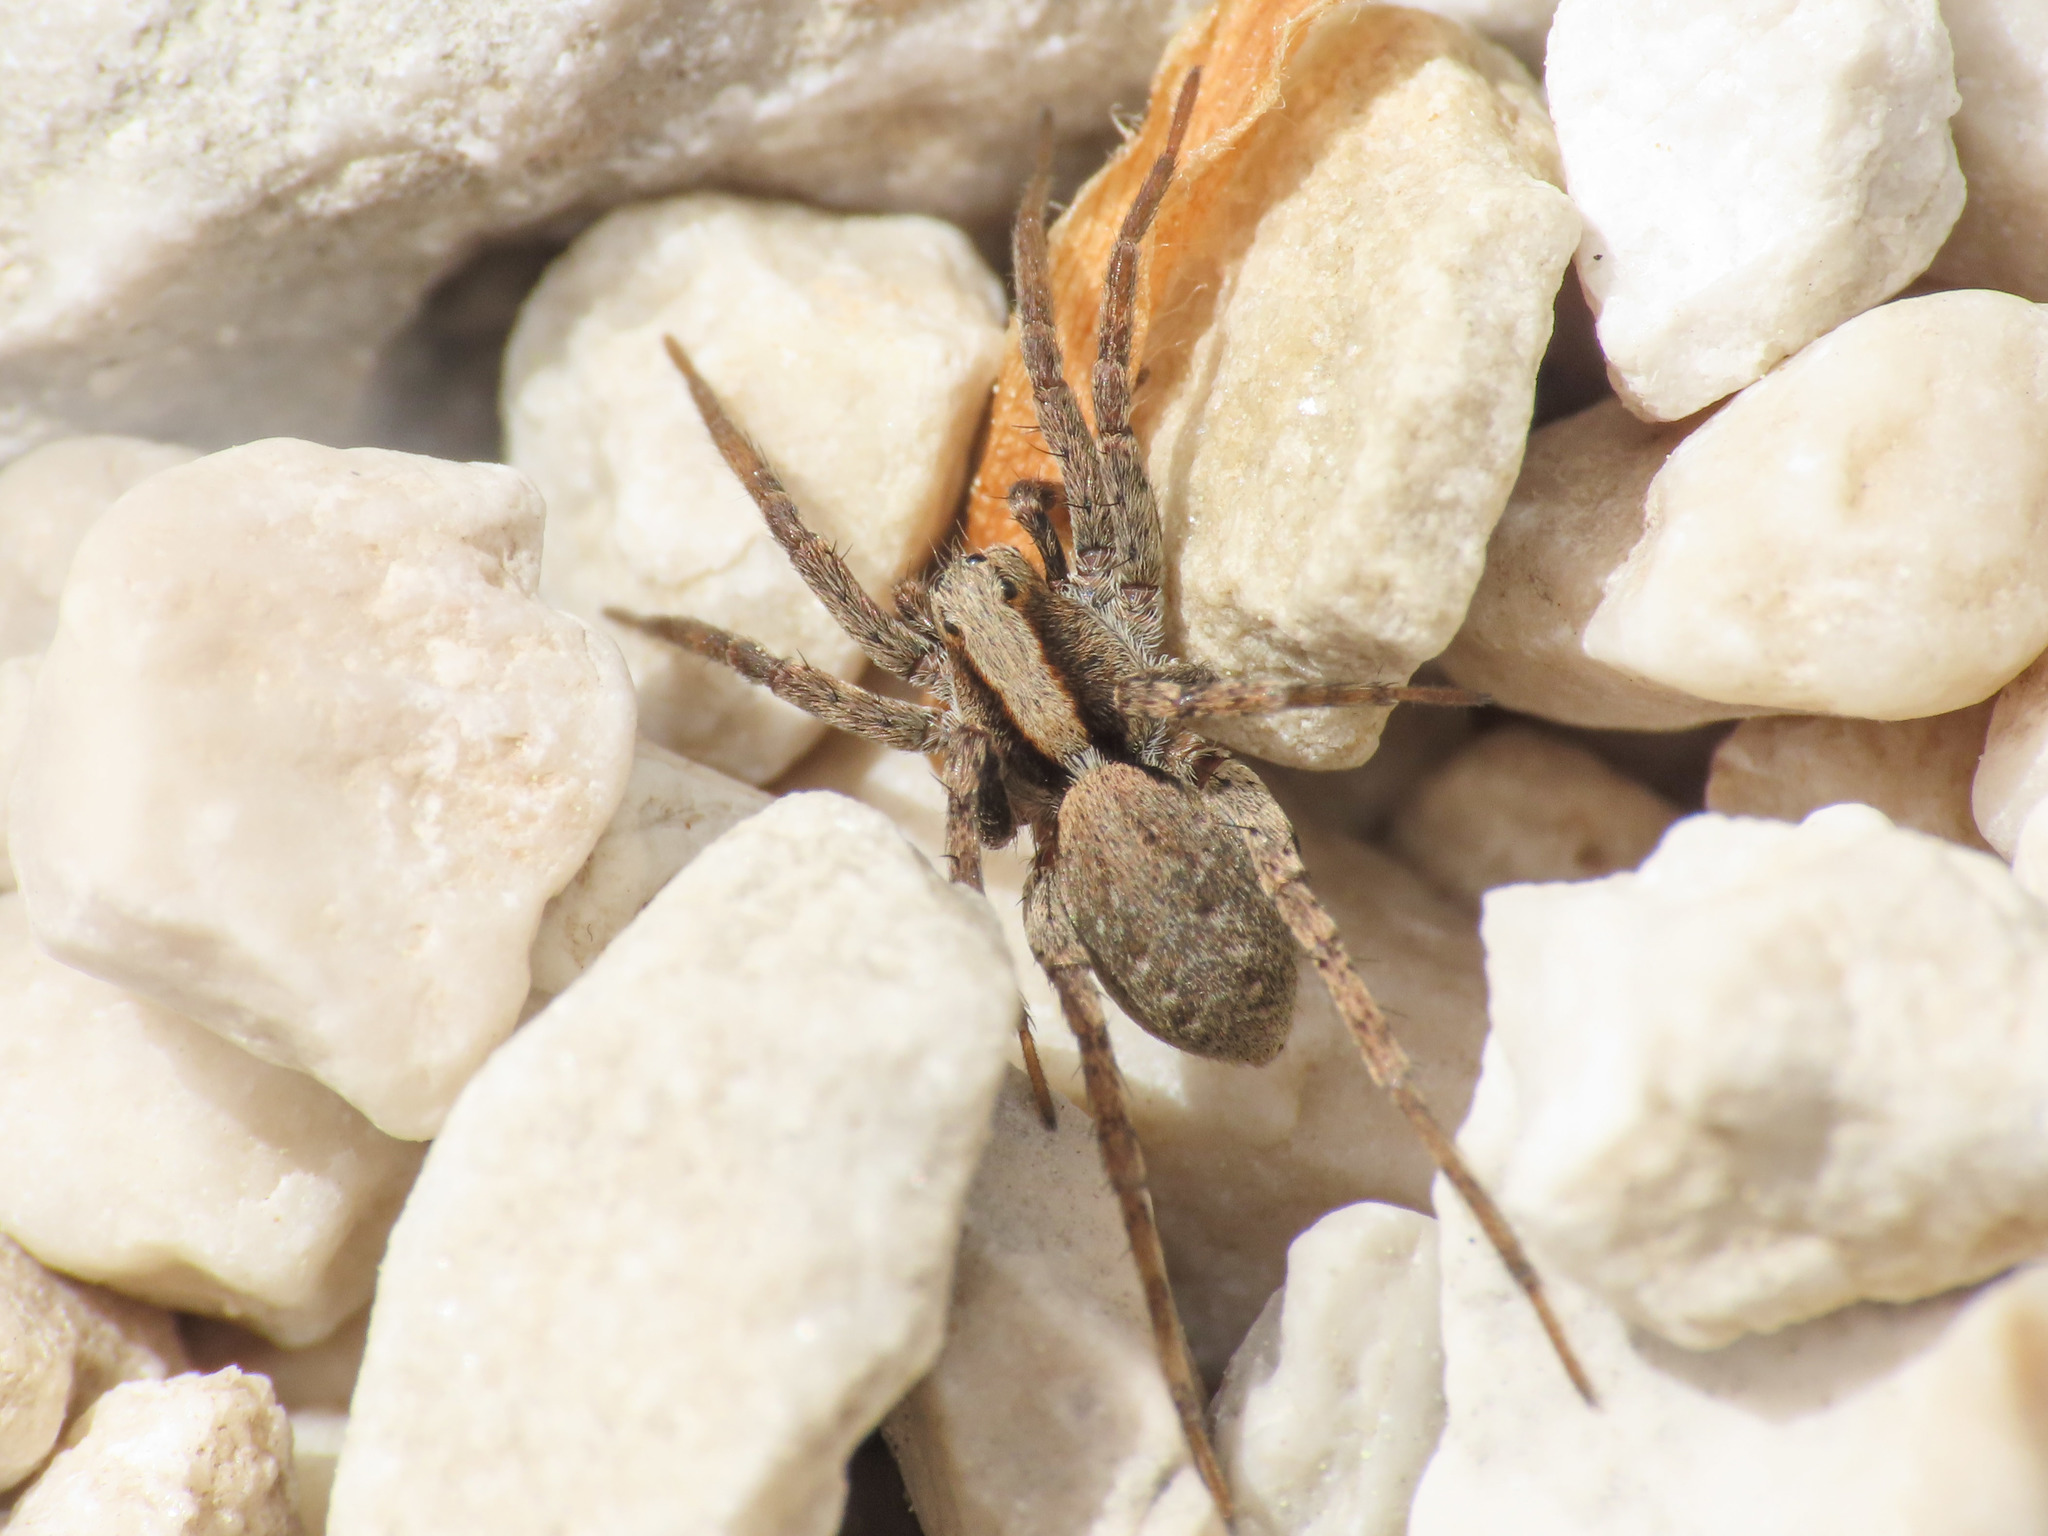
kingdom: Animalia
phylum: Arthropoda
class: Arachnida
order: Araneae
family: Lycosidae
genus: Xerolycosa
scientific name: Xerolycosa nemoralis
